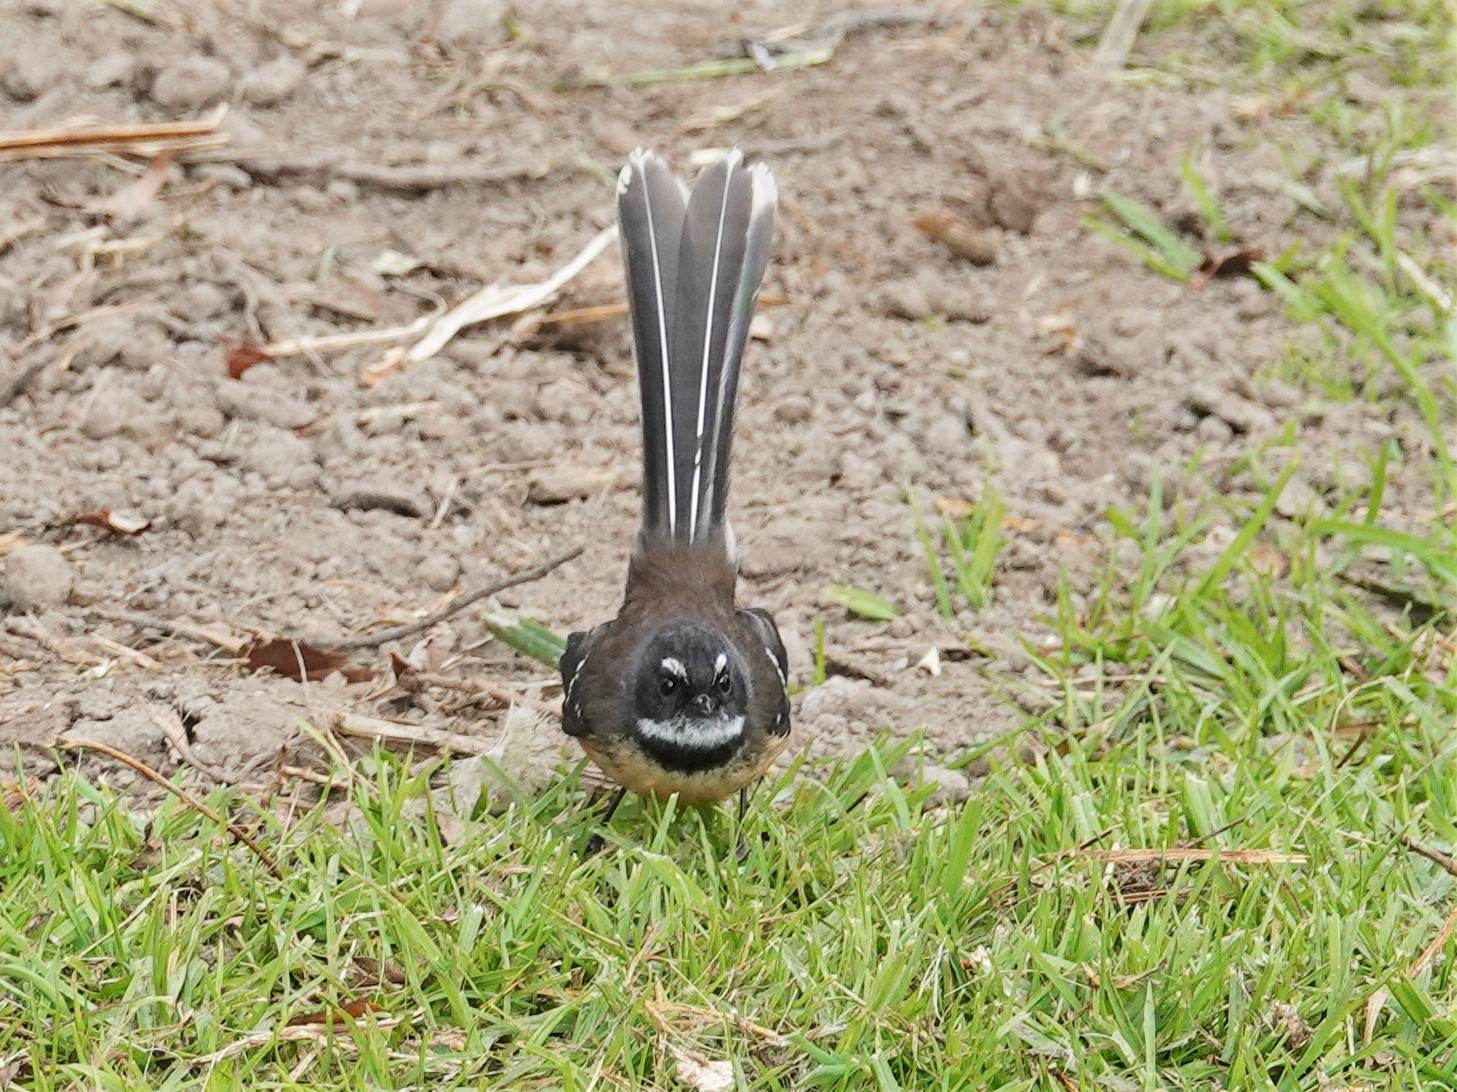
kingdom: Animalia
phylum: Chordata
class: Aves
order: Passeriformes
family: Rhipiduridae
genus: Rhipidura
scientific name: Rhipidura fuliginosa
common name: New zealand fantail
